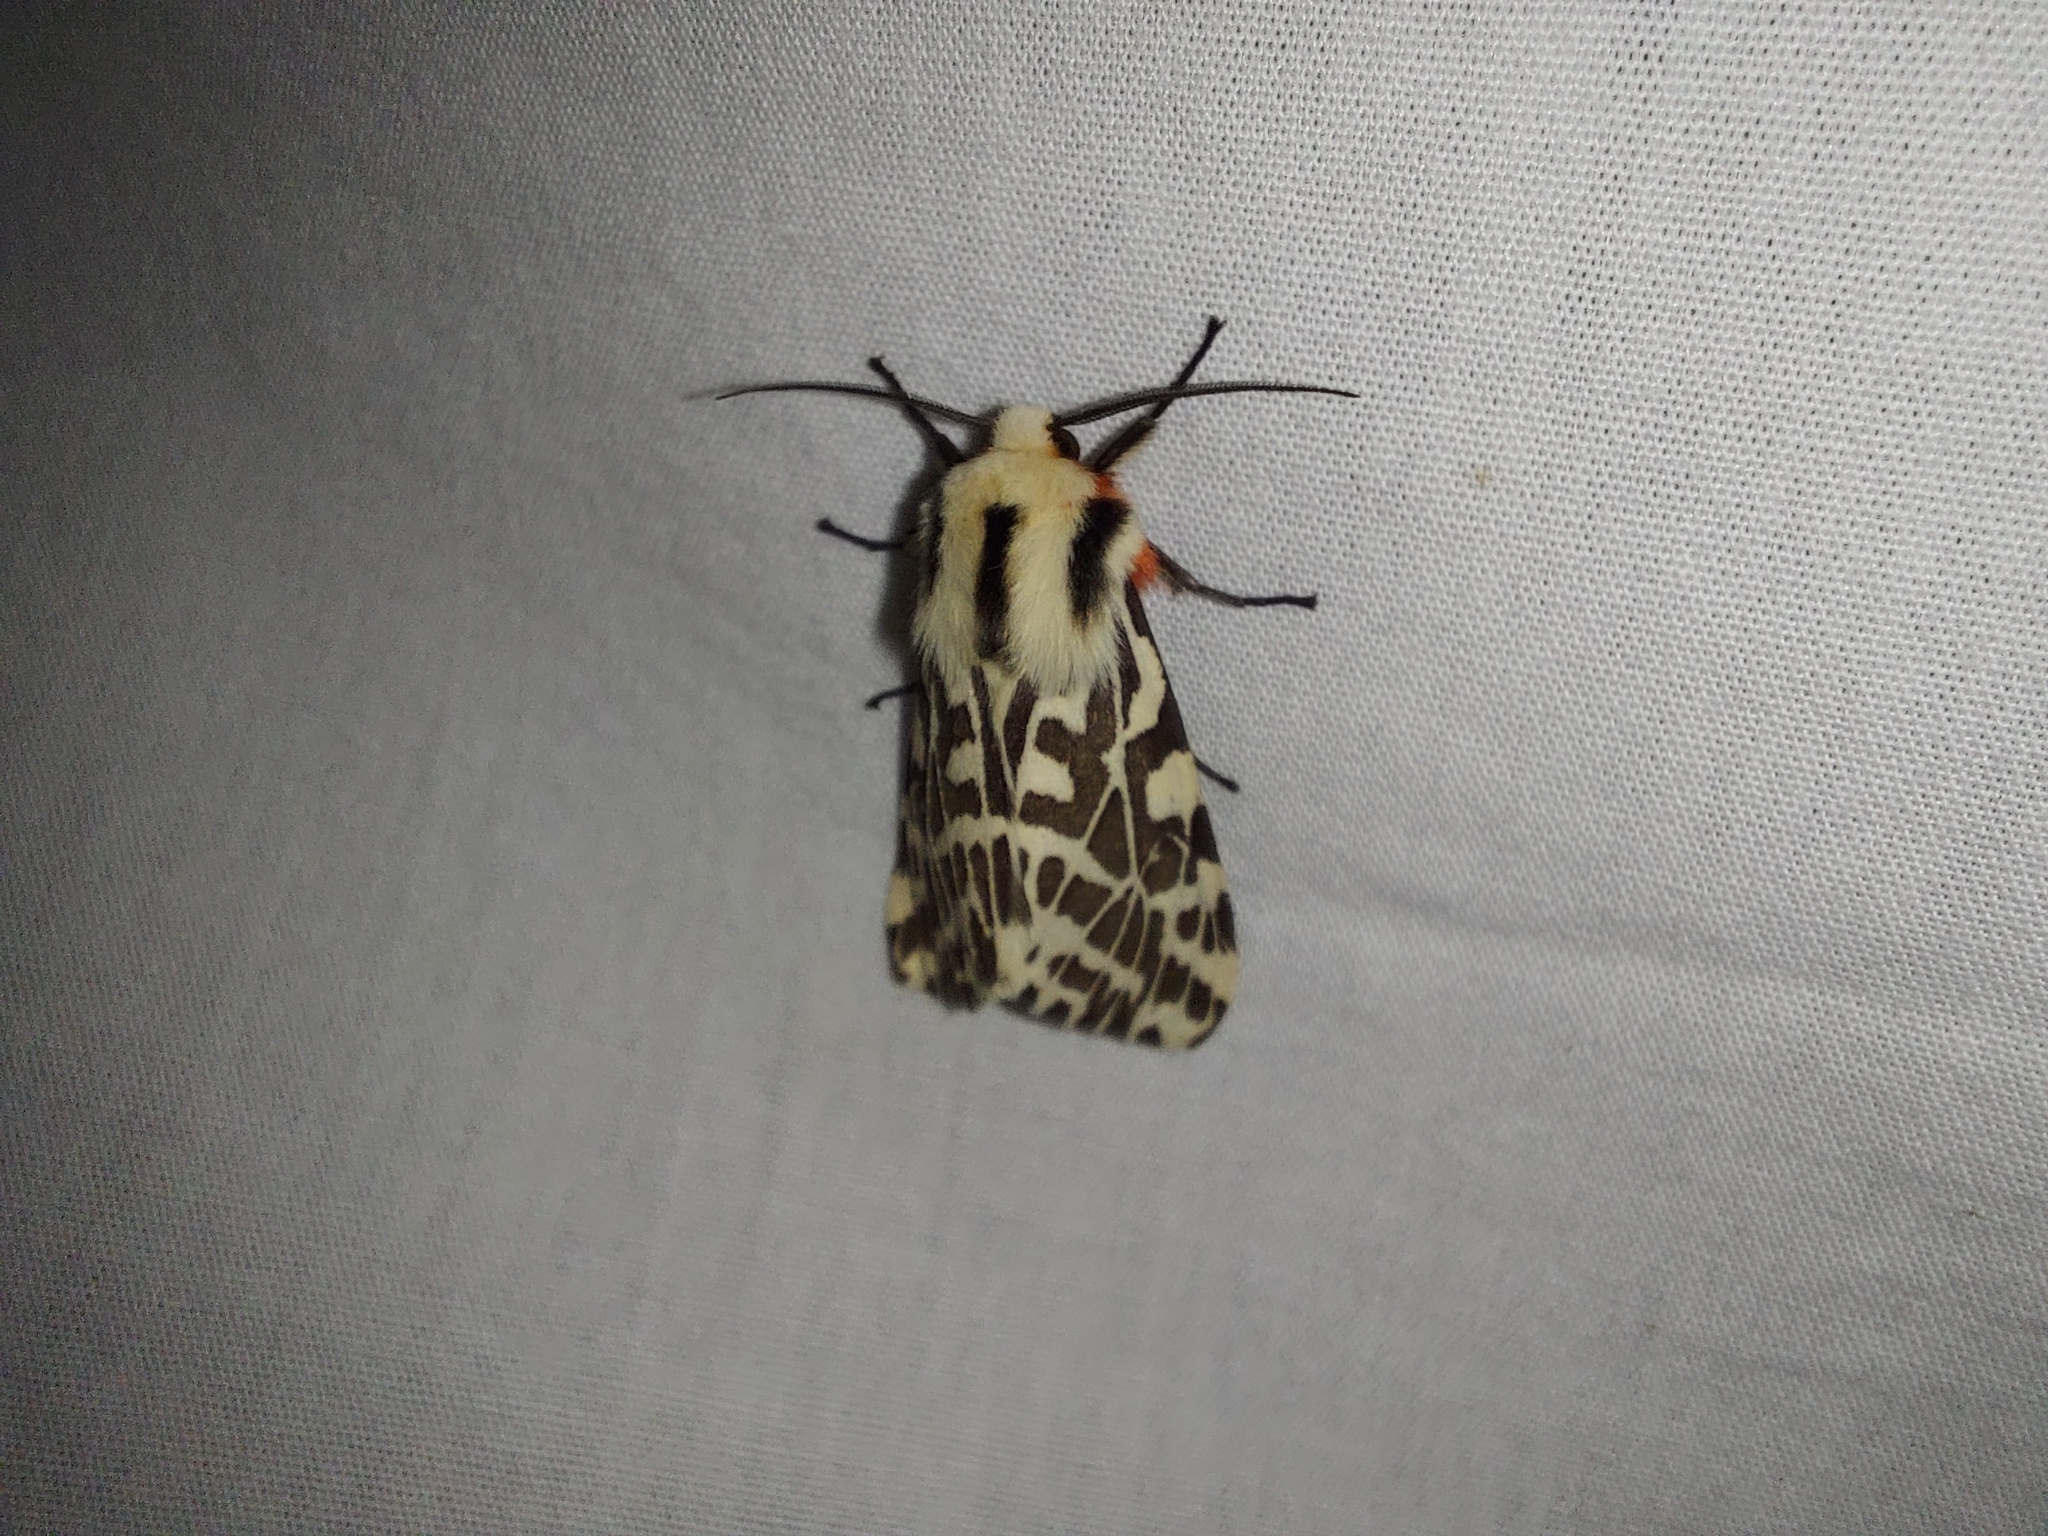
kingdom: Animalia
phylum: Arthropoda
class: Insecta
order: Lepidoptera
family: Erebidae
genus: Ardices
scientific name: Ardices glatignyi
